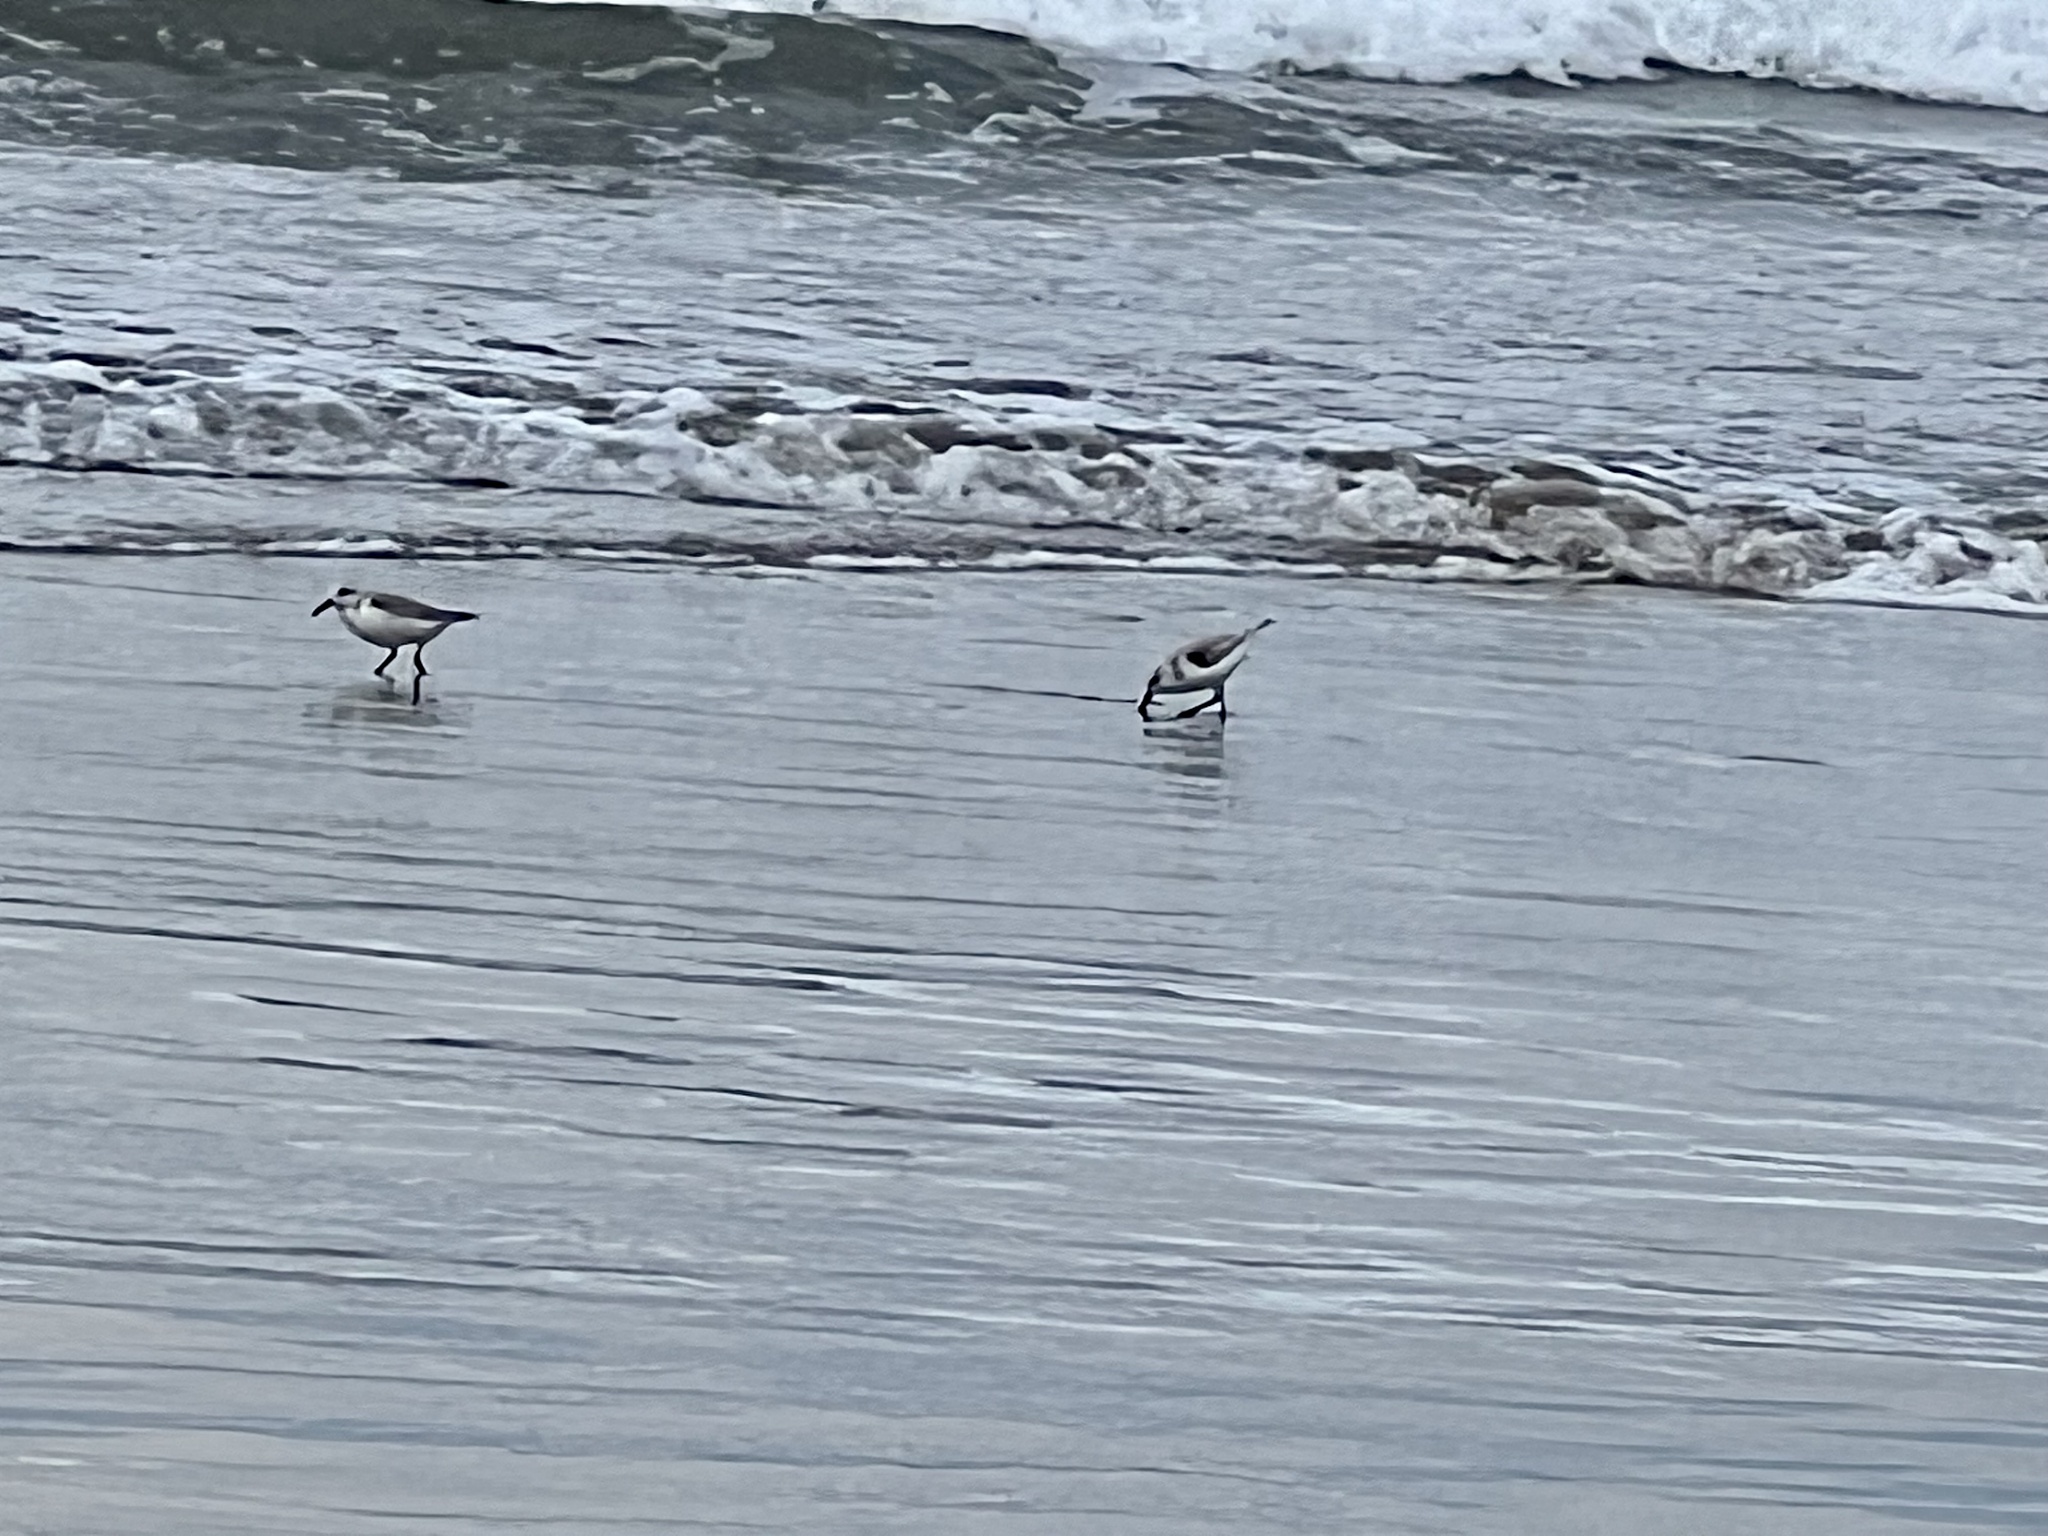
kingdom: Animalia
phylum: Chordata
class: Aves
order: Charadriiformes
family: Scolopacidae
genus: Calidris
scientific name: Calidris alba
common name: Sanderling
